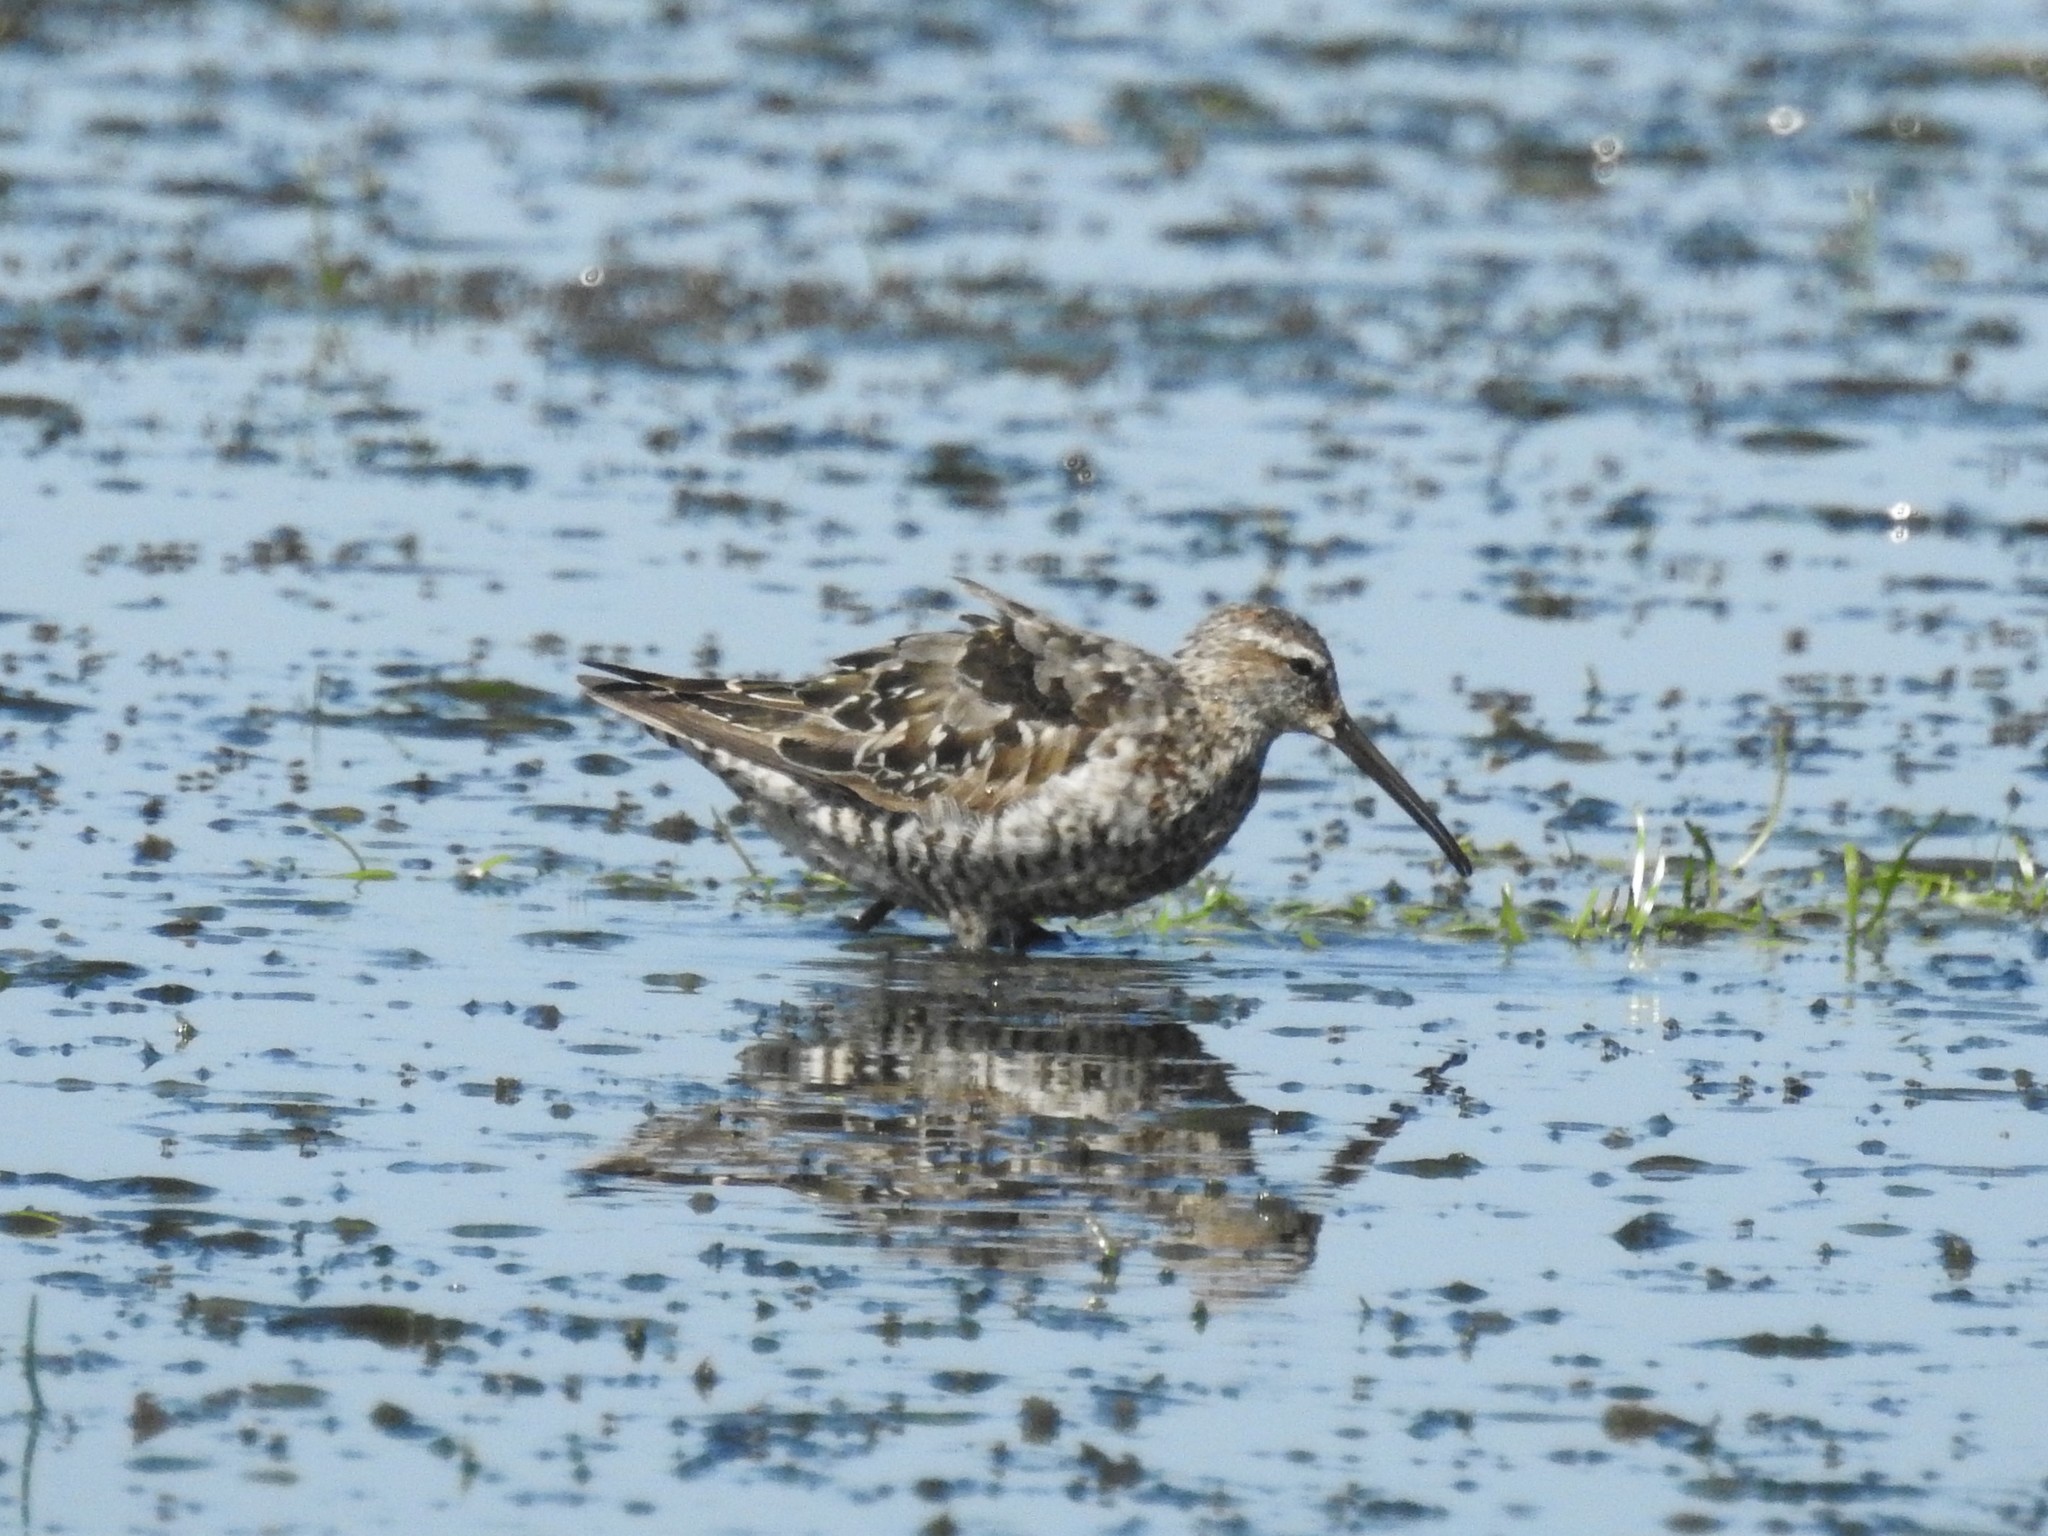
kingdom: Animalia
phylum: Chordata
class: Aves
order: Charadriiformes
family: Scolopacidae
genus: Calidris
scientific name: Calidris himantopus
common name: Stilt sandpiper
